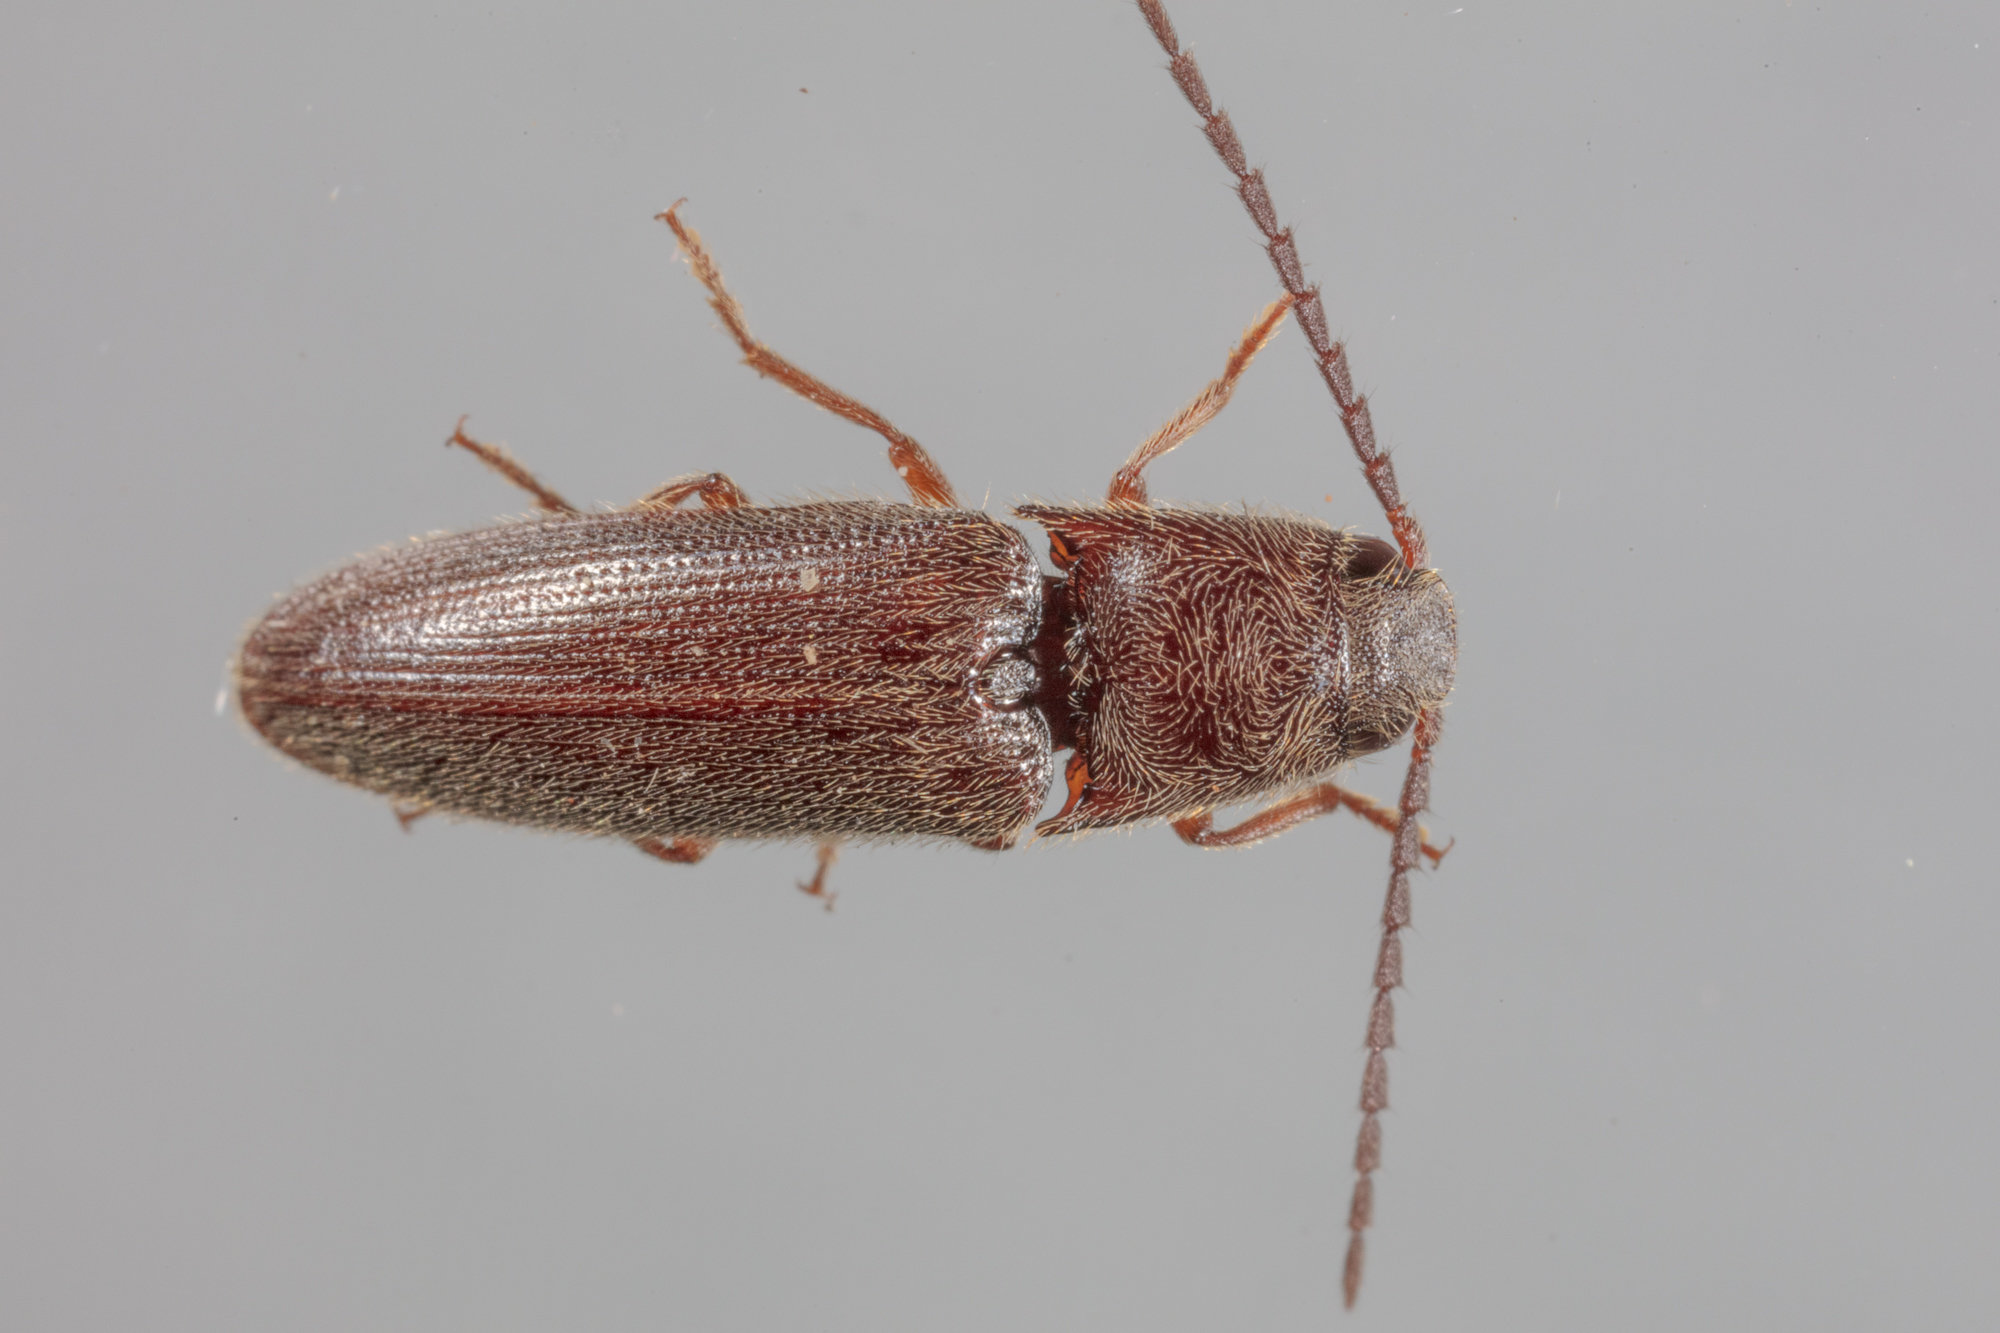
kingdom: Animalia
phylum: Arthropoda
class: Insecta
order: Coleoptera
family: Elateridae
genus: Dipropus
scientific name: Dipropus
